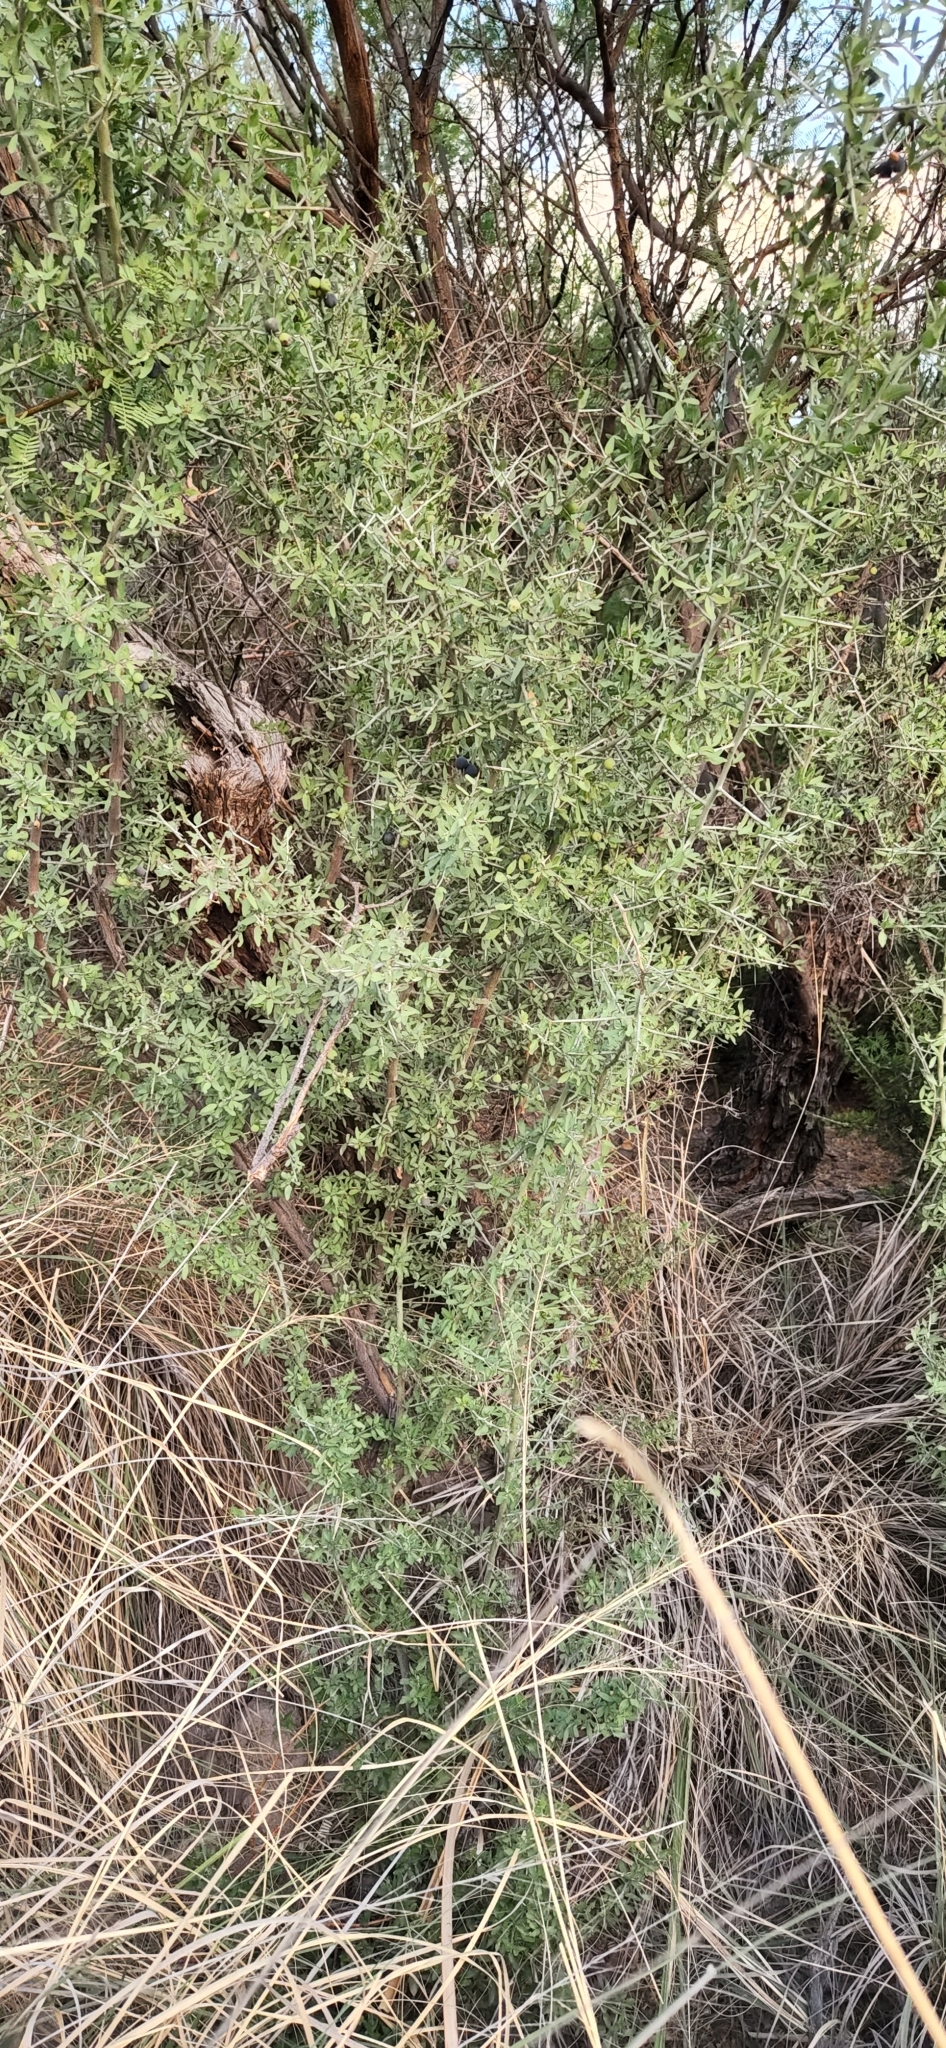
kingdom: Plantae
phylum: Tracheophyta
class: Magnoliopsida
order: Rosales
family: Rhamnaceae
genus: Sarcomphalus
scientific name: Sarcomphalus obtusifolius
